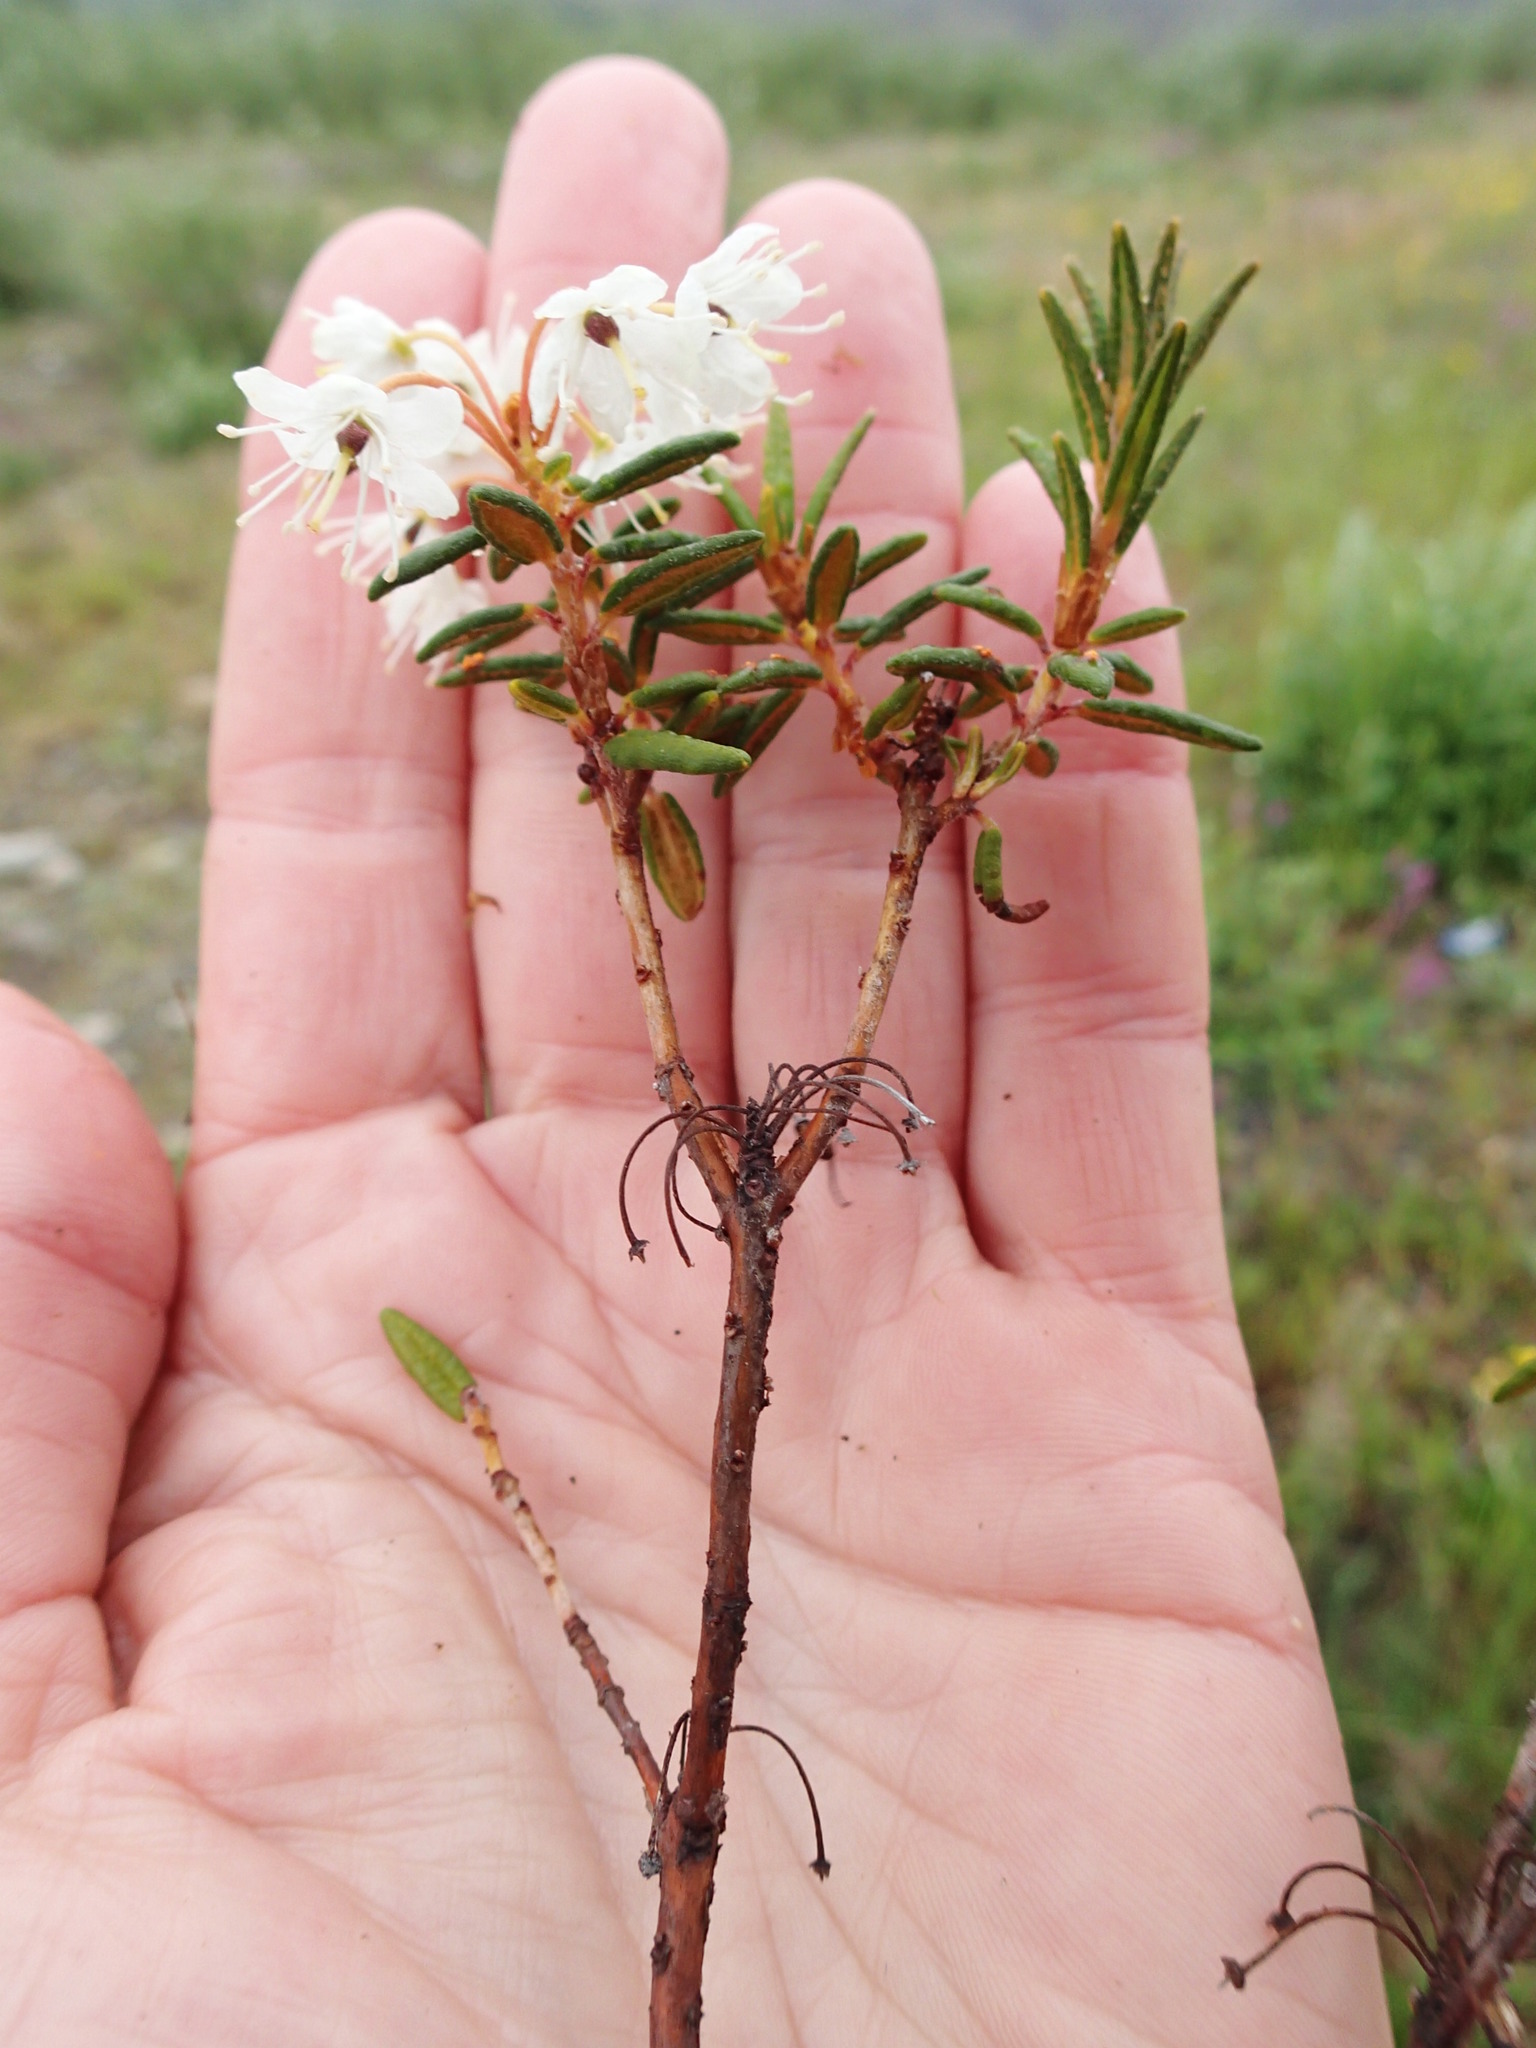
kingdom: Plantae
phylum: Tracheophyta
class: Magnoliopsida
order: Ericales
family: Ericaceae
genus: Rhododendron
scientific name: Rhododendron tomentosum
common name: Marsh labrador tea
